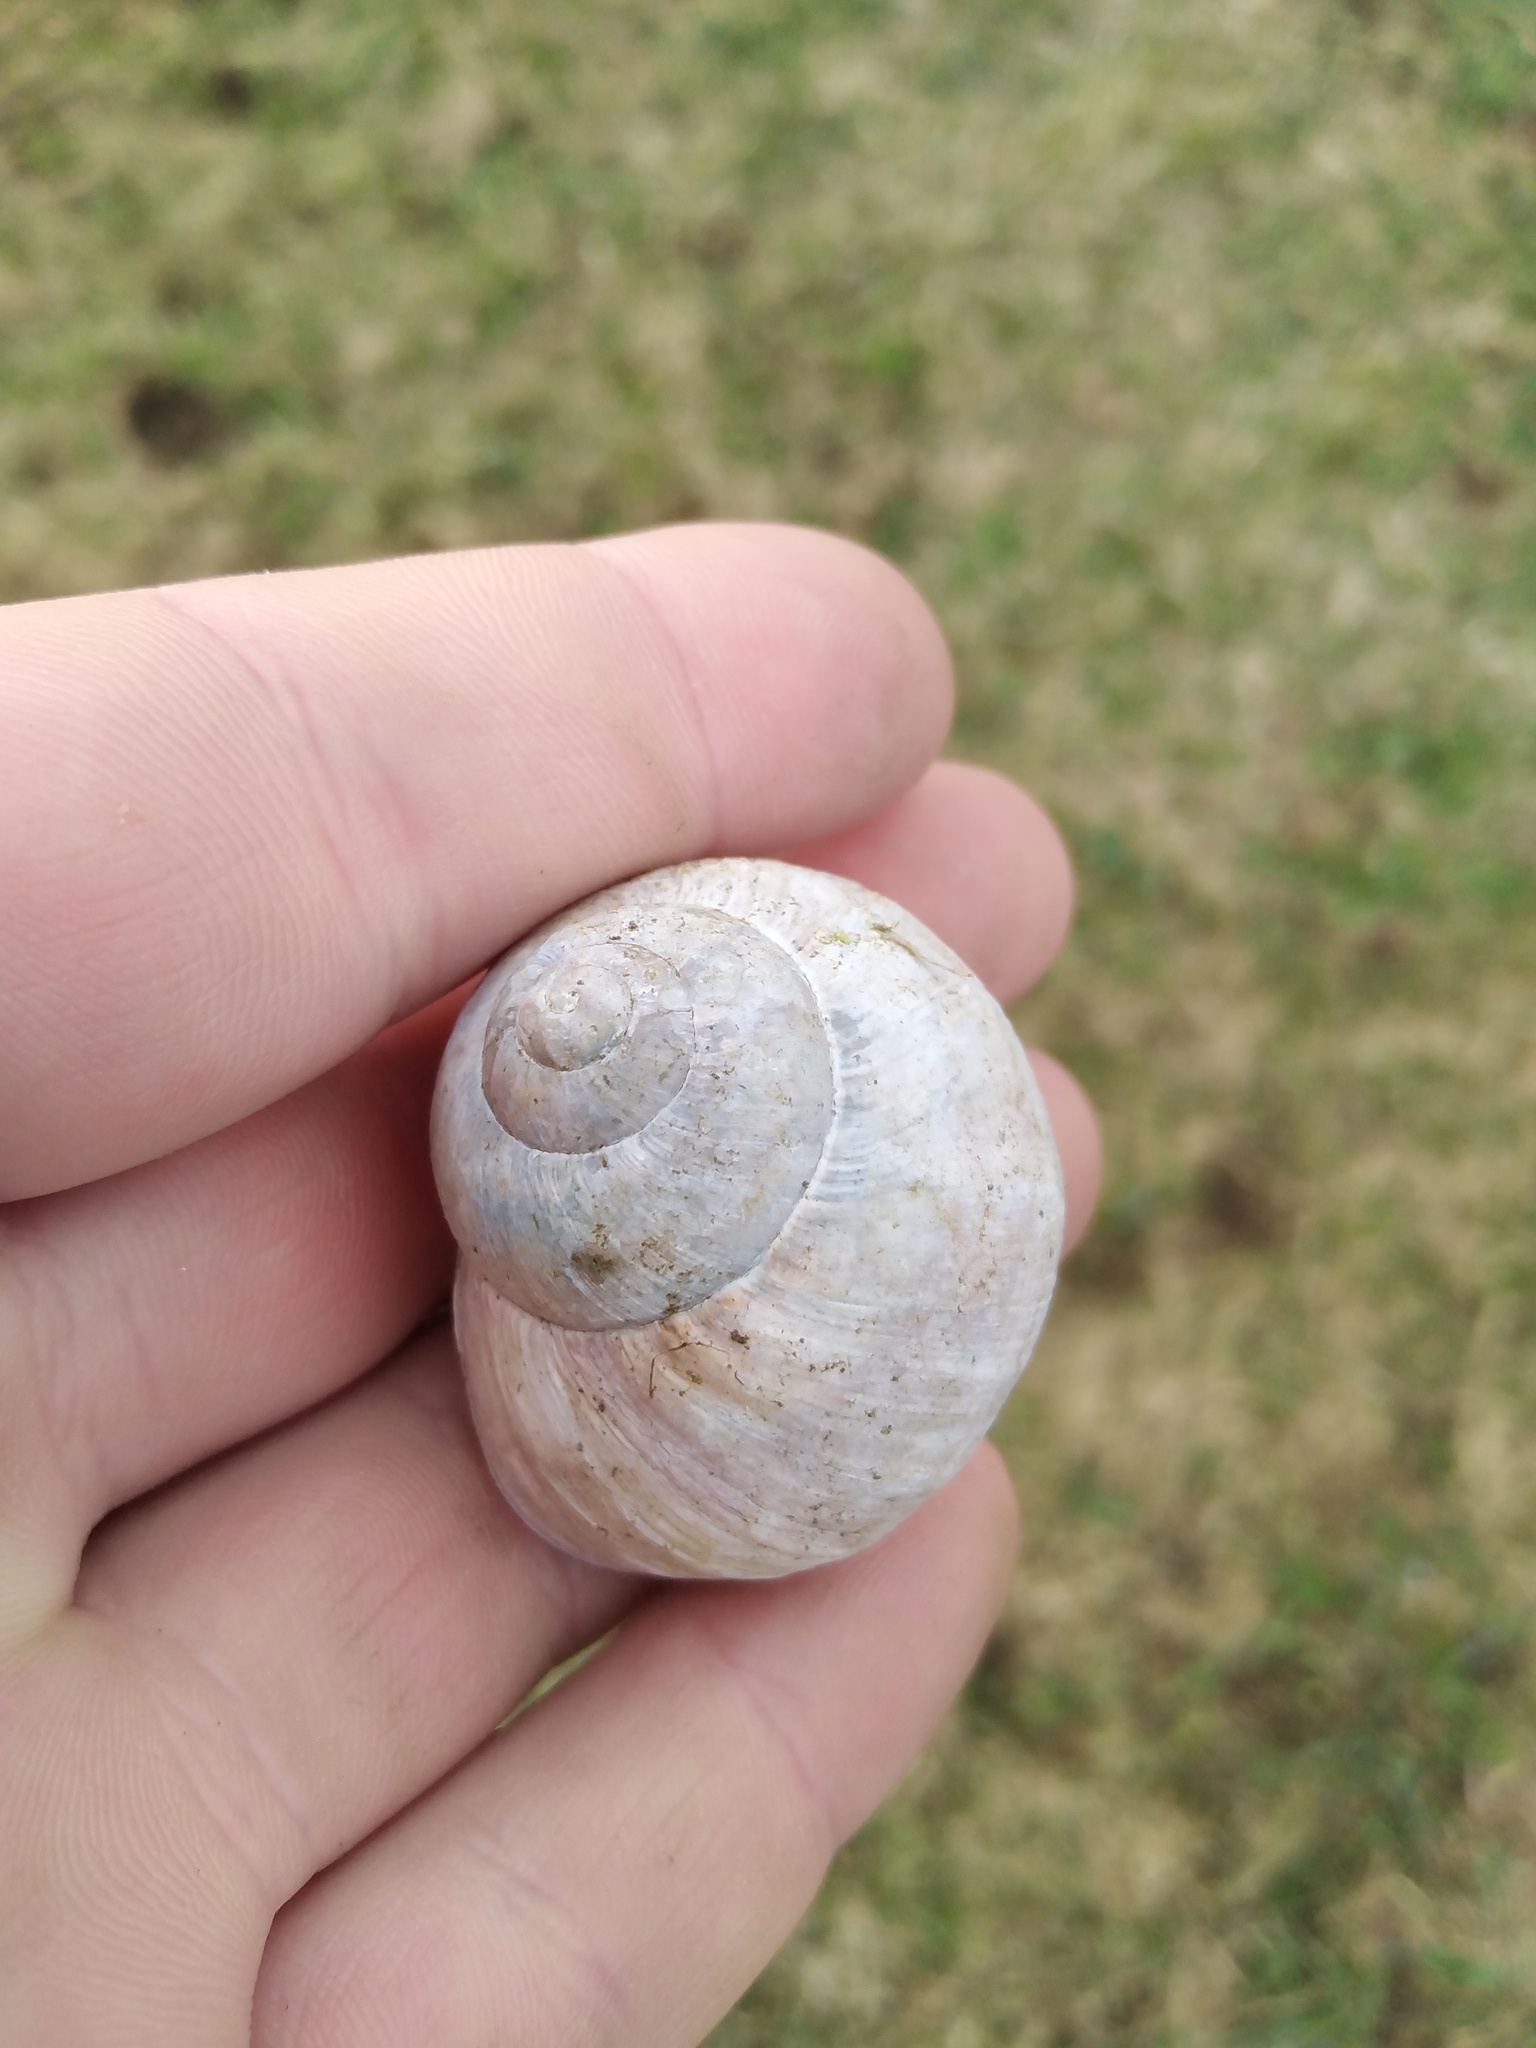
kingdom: Animalia
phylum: Mollusca
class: Gastropoda
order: Stylommatophora
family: Helicidae
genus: Helix
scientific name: Helix pomatia
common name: Roman snail
